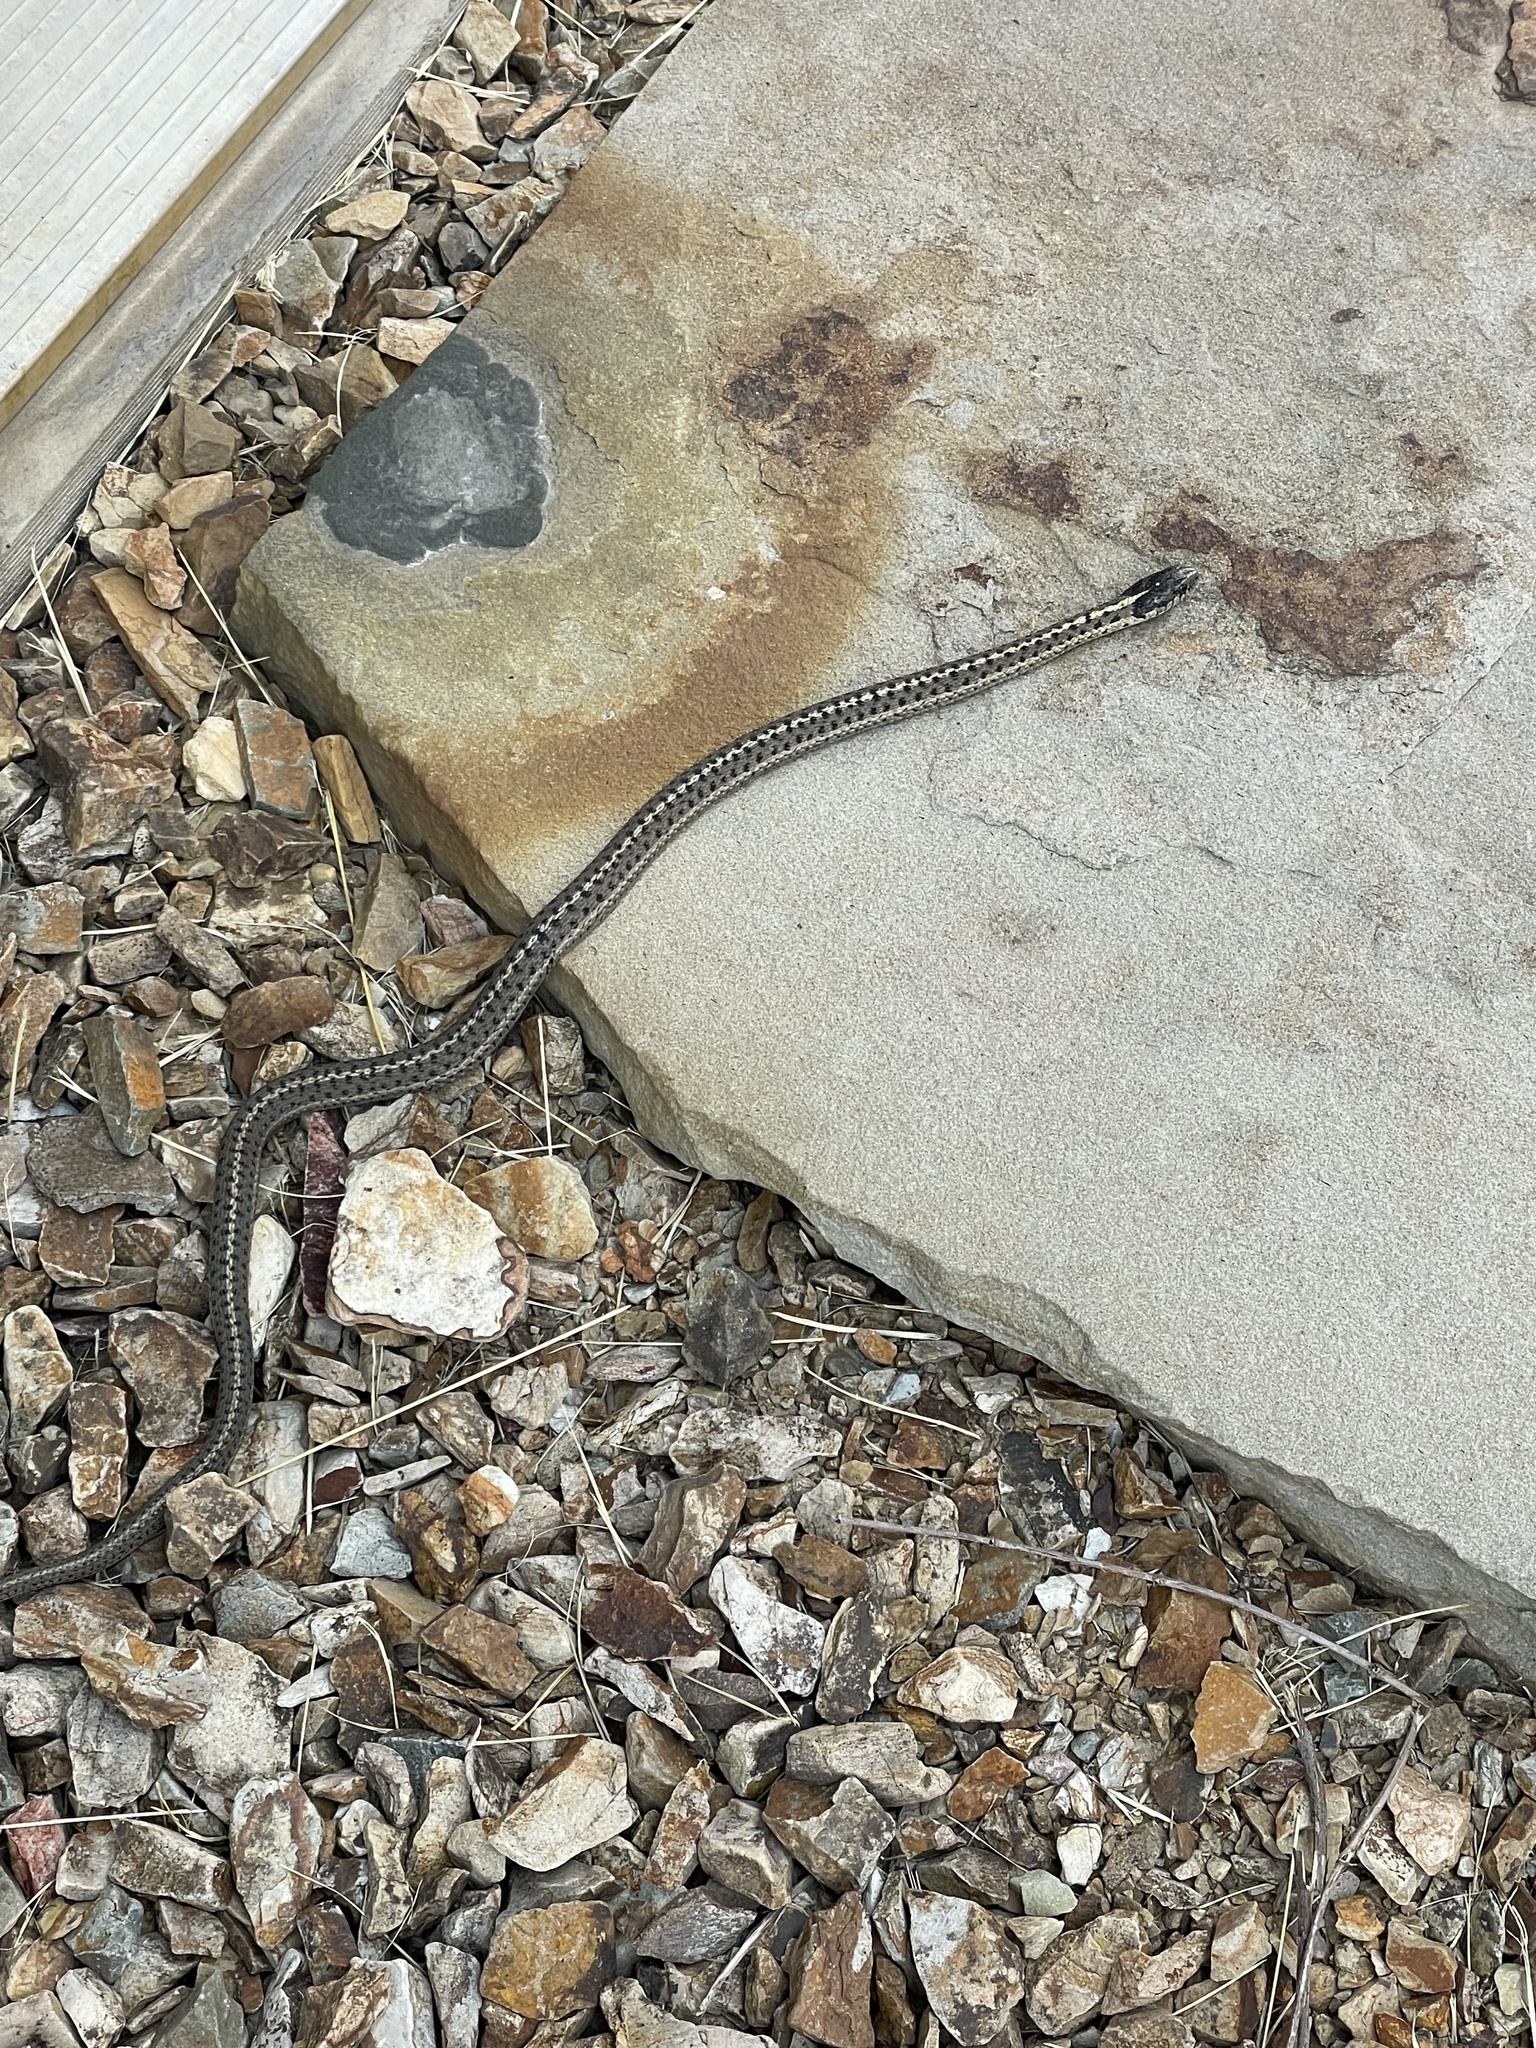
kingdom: Animalia
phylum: Chordata
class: Squamata
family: Colubridae
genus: Thamnophis
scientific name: Thamnophis elegans
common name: Western terrestrial garter snake
